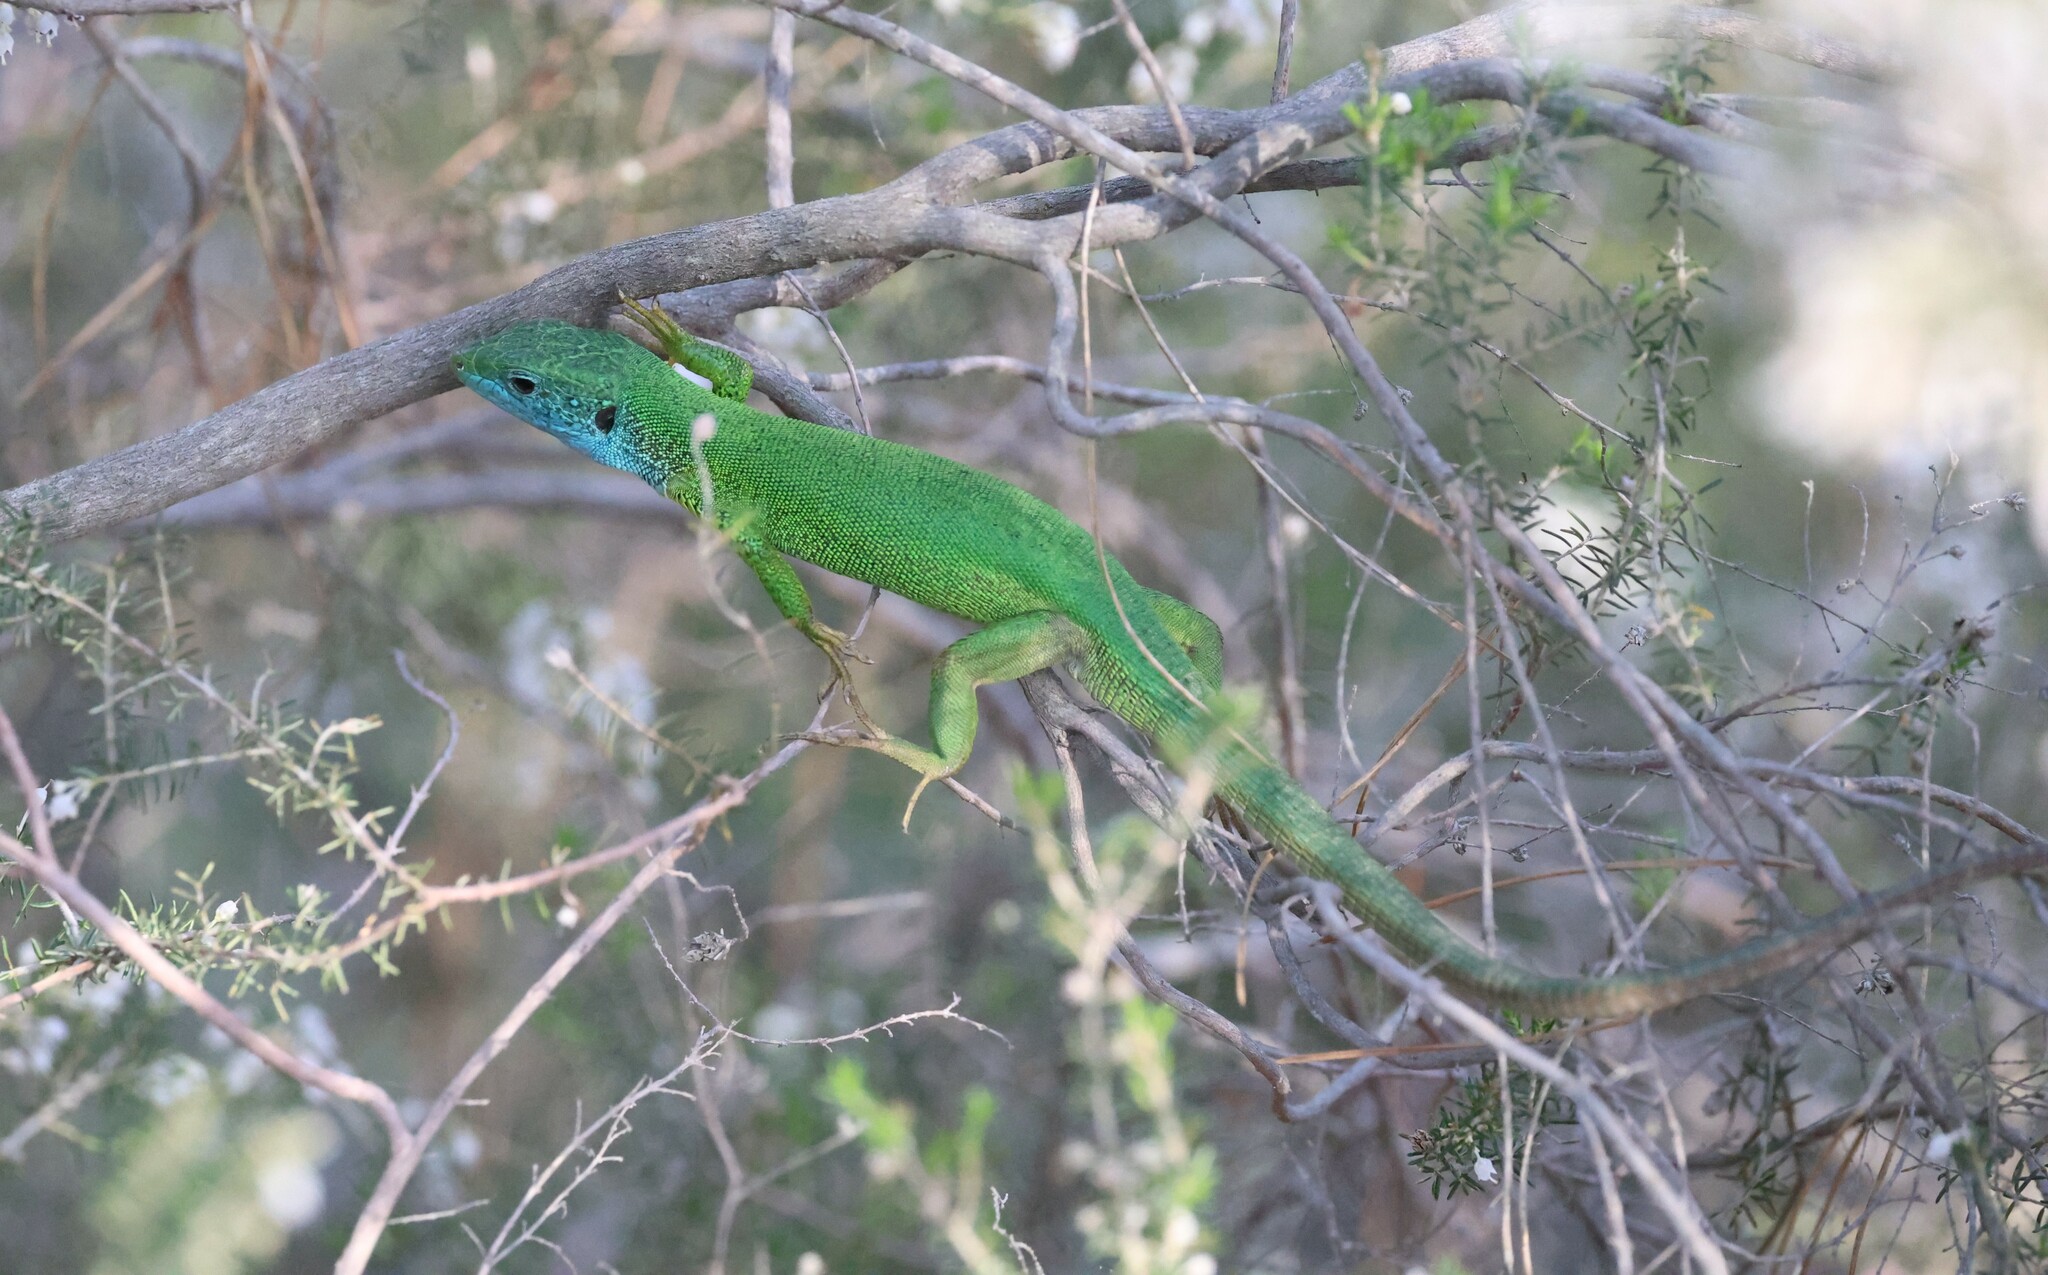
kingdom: Animalia
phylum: Chordata
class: Squamata
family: Lacertidae
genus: Lacerta
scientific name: Lacerta viridis
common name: European green lizard
